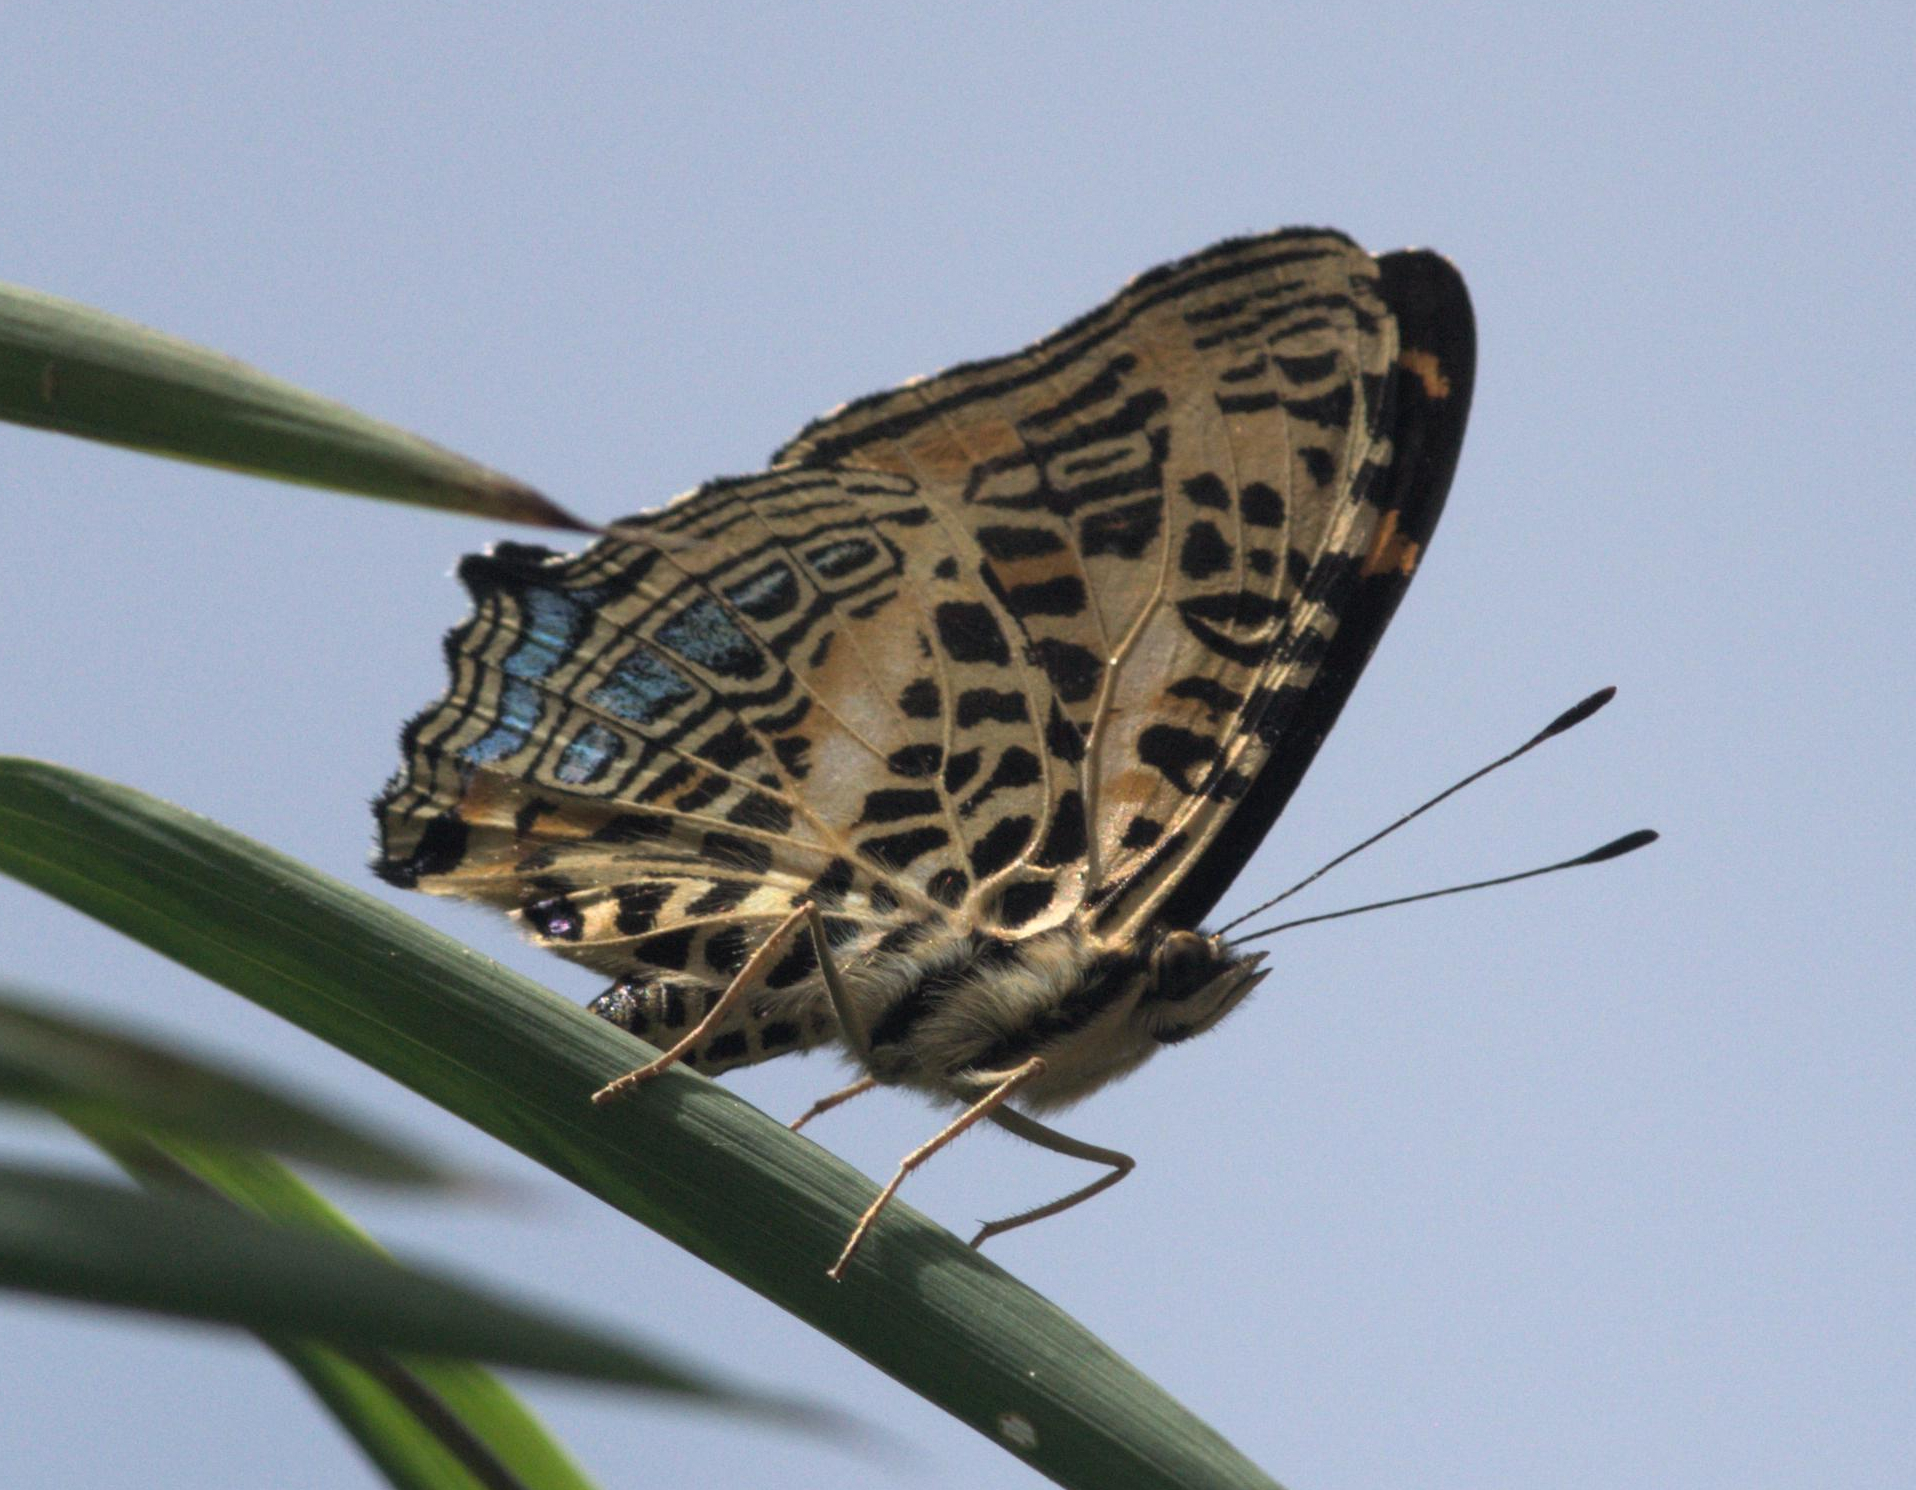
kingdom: Animalia
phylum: Arthropoda
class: Insecta
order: Lepidoptera
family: Nymphalidae
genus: Symbrenthia
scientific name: Symbrenthia niphanda
